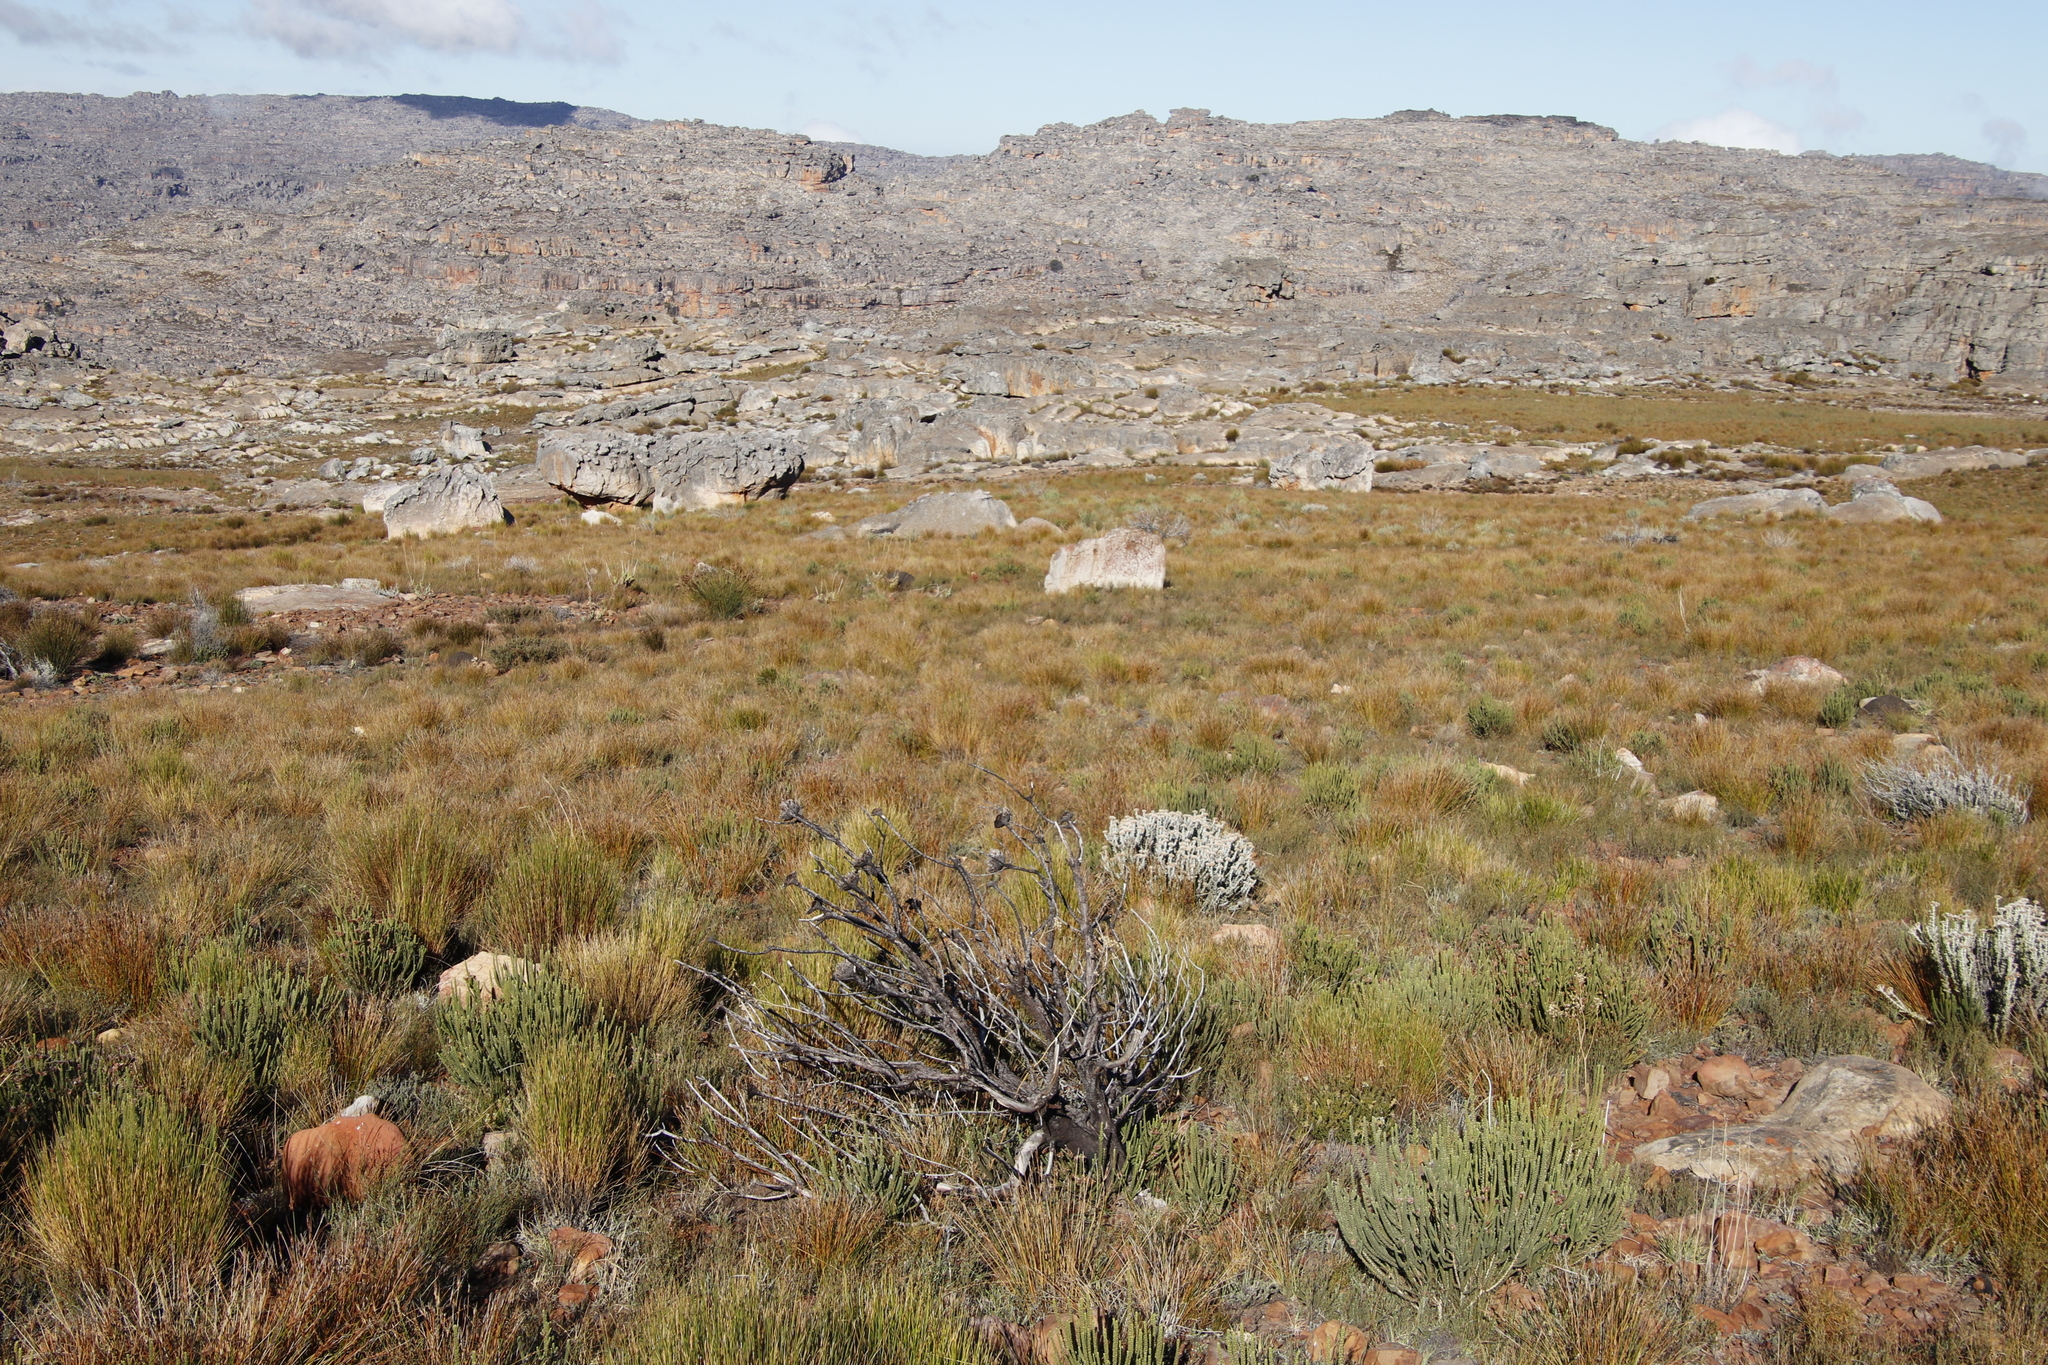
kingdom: Plantae
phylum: Tracheophyta
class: Magnoliopsida
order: Proteales
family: Proteaceae
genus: Protea
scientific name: Protea repens
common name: Sugarbush
